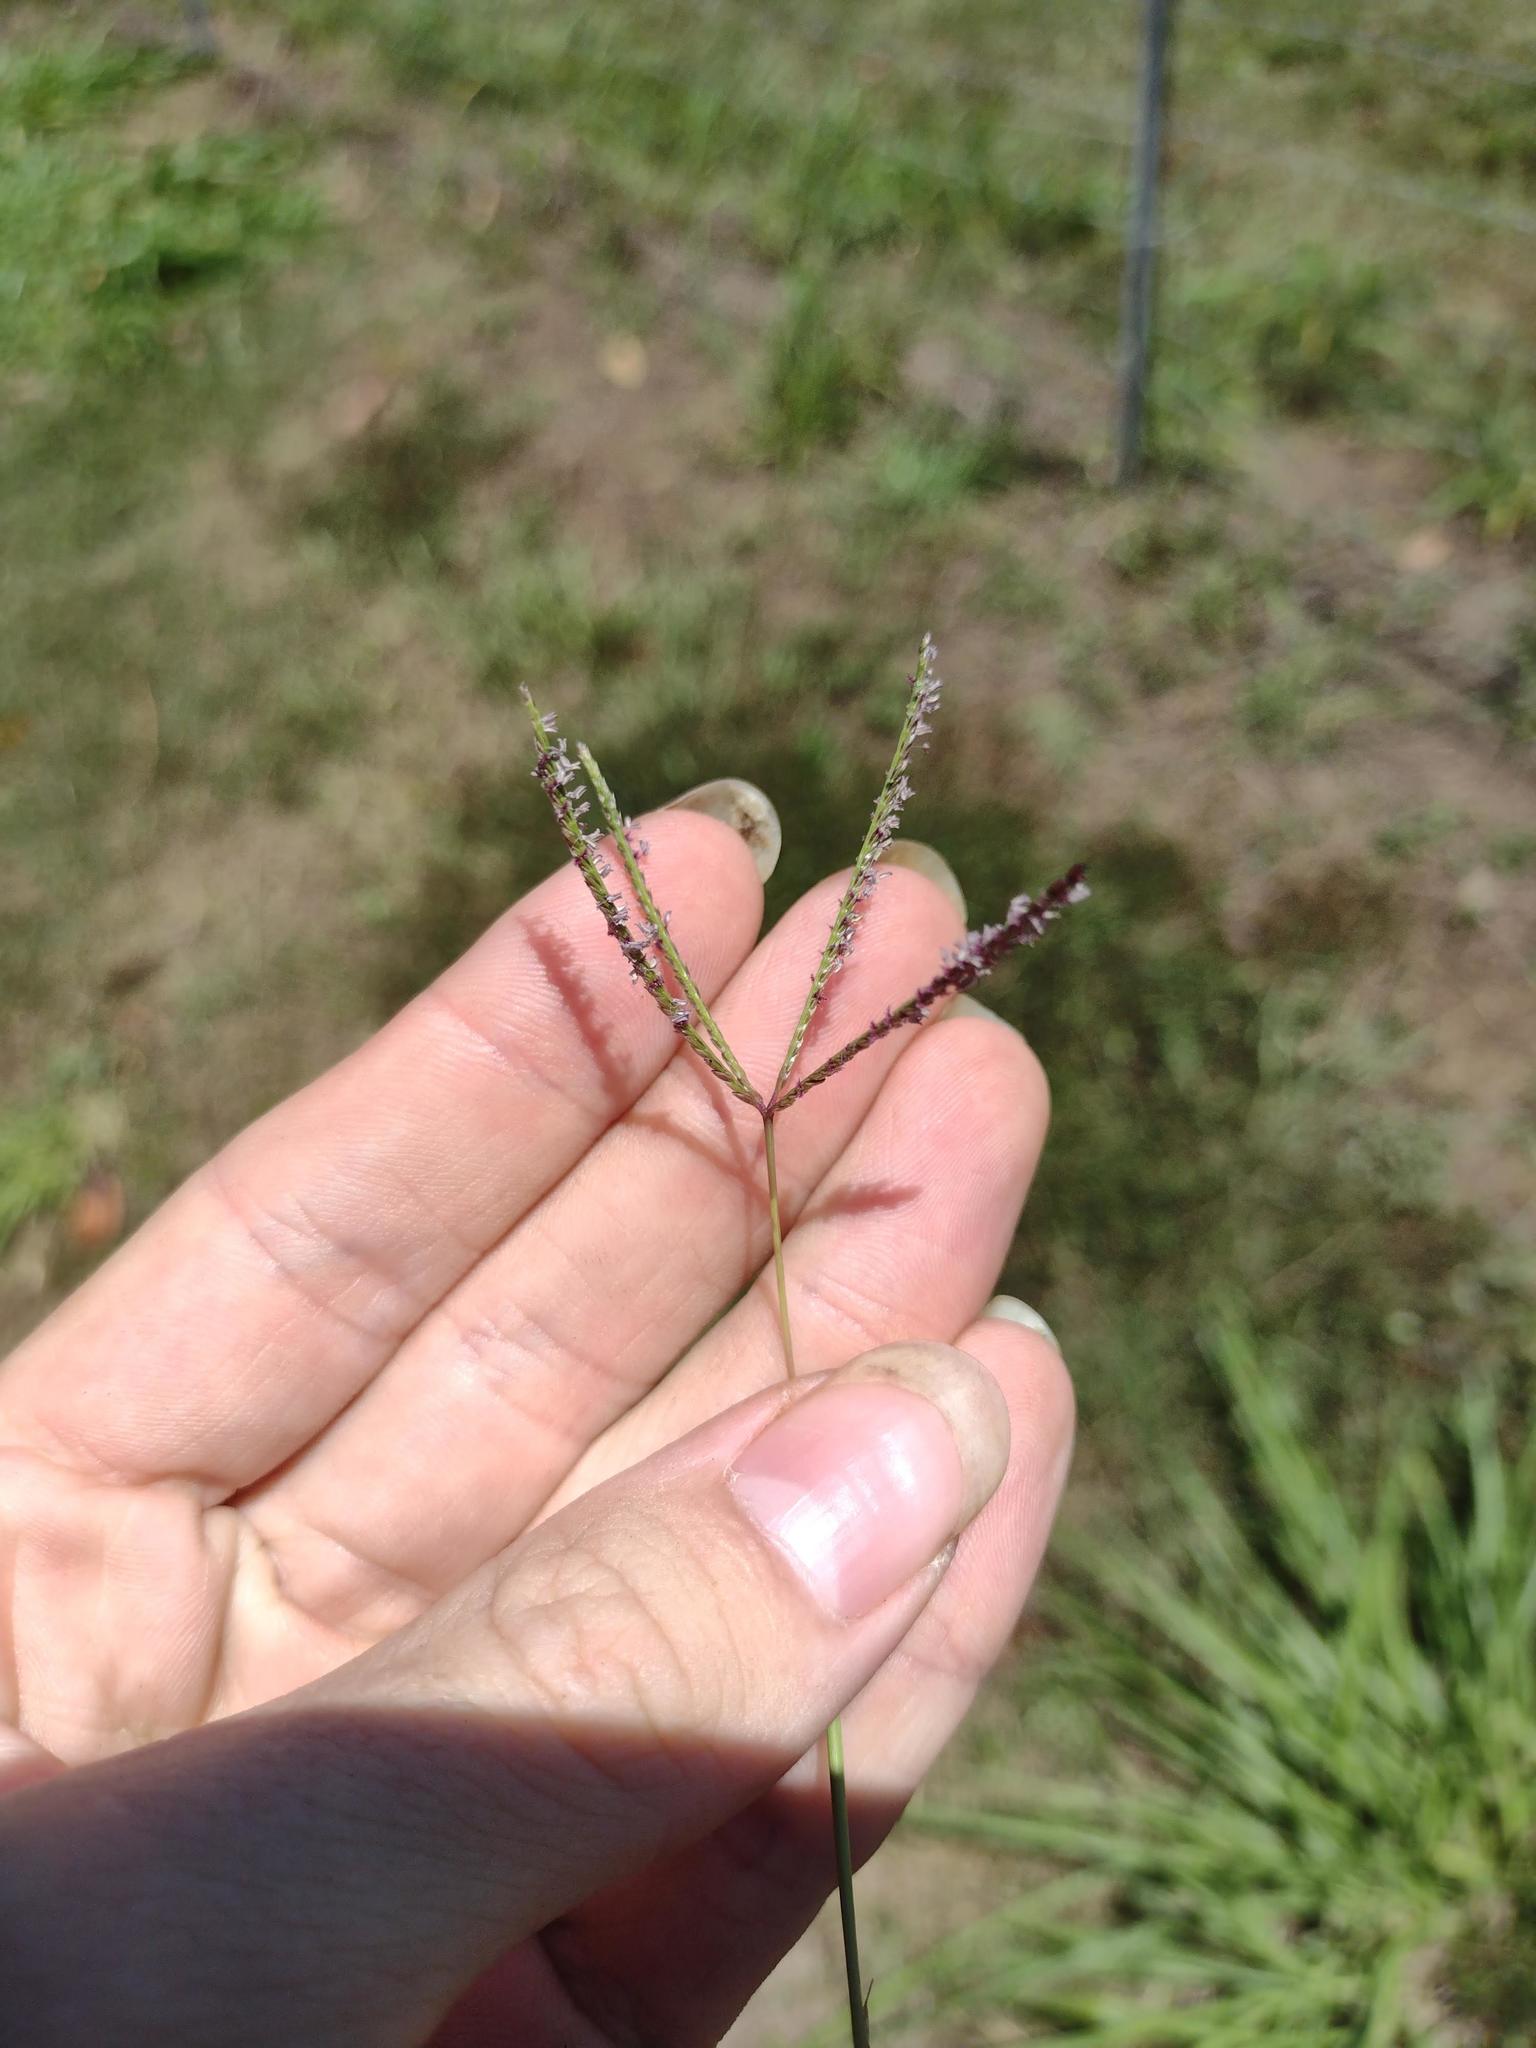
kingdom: Plantae
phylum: Tracheophyta
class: Liliopsida
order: Poales
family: Poaceae
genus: Cynodon
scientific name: Cynodon dactylon
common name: Bermuda grass
